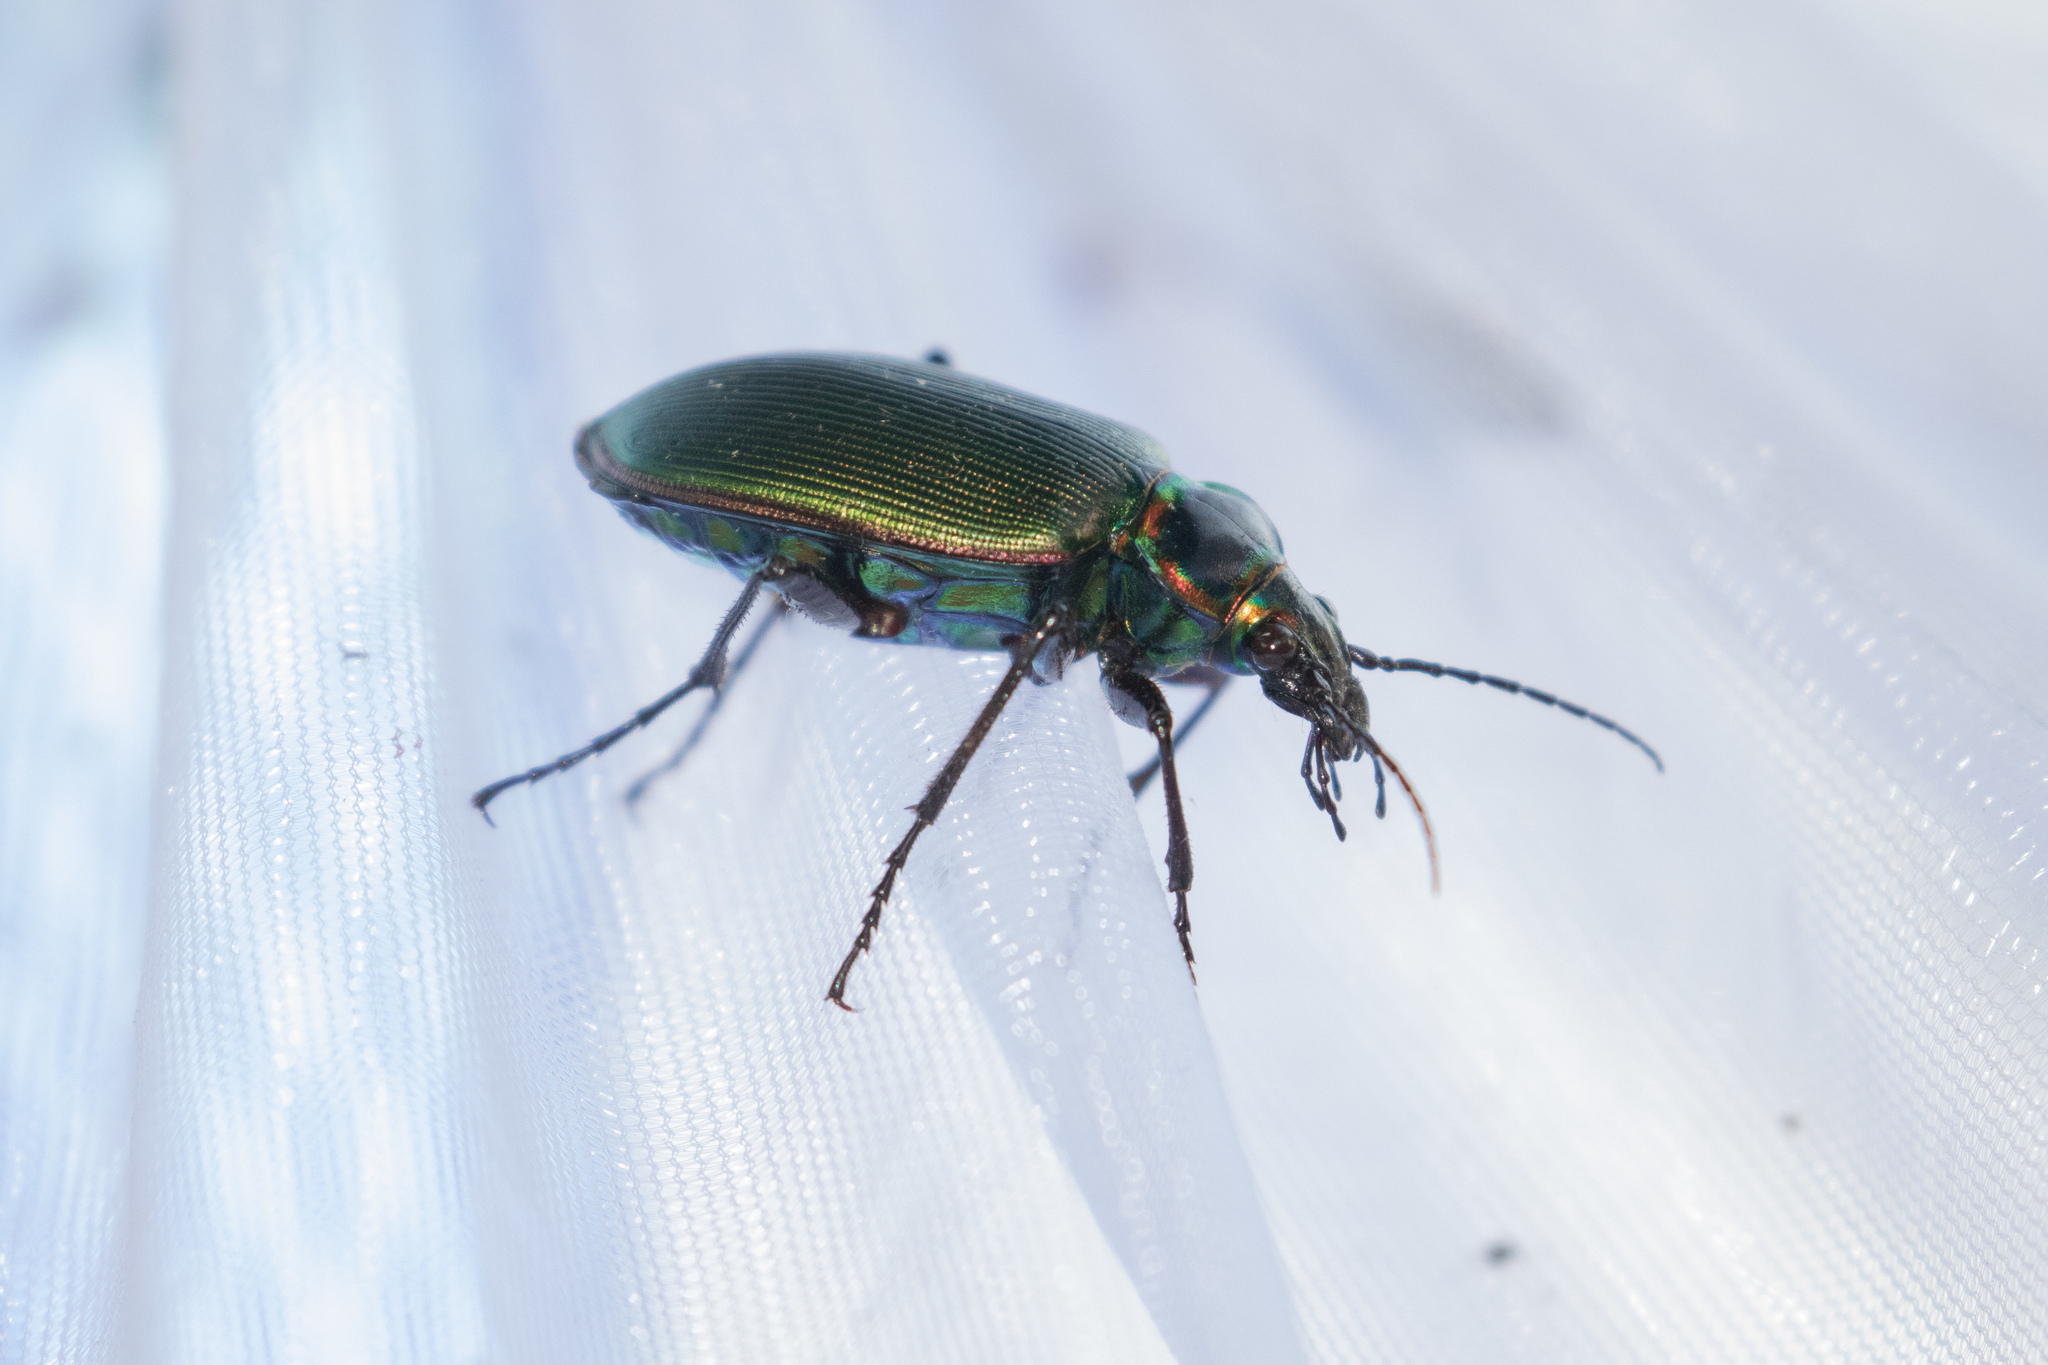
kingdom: Animalia
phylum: Arthropoda
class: Insecta
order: Coleoptera
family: Carabidae
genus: Calosoma
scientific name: Calosoma scrutator
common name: Fiery searcher beetle
